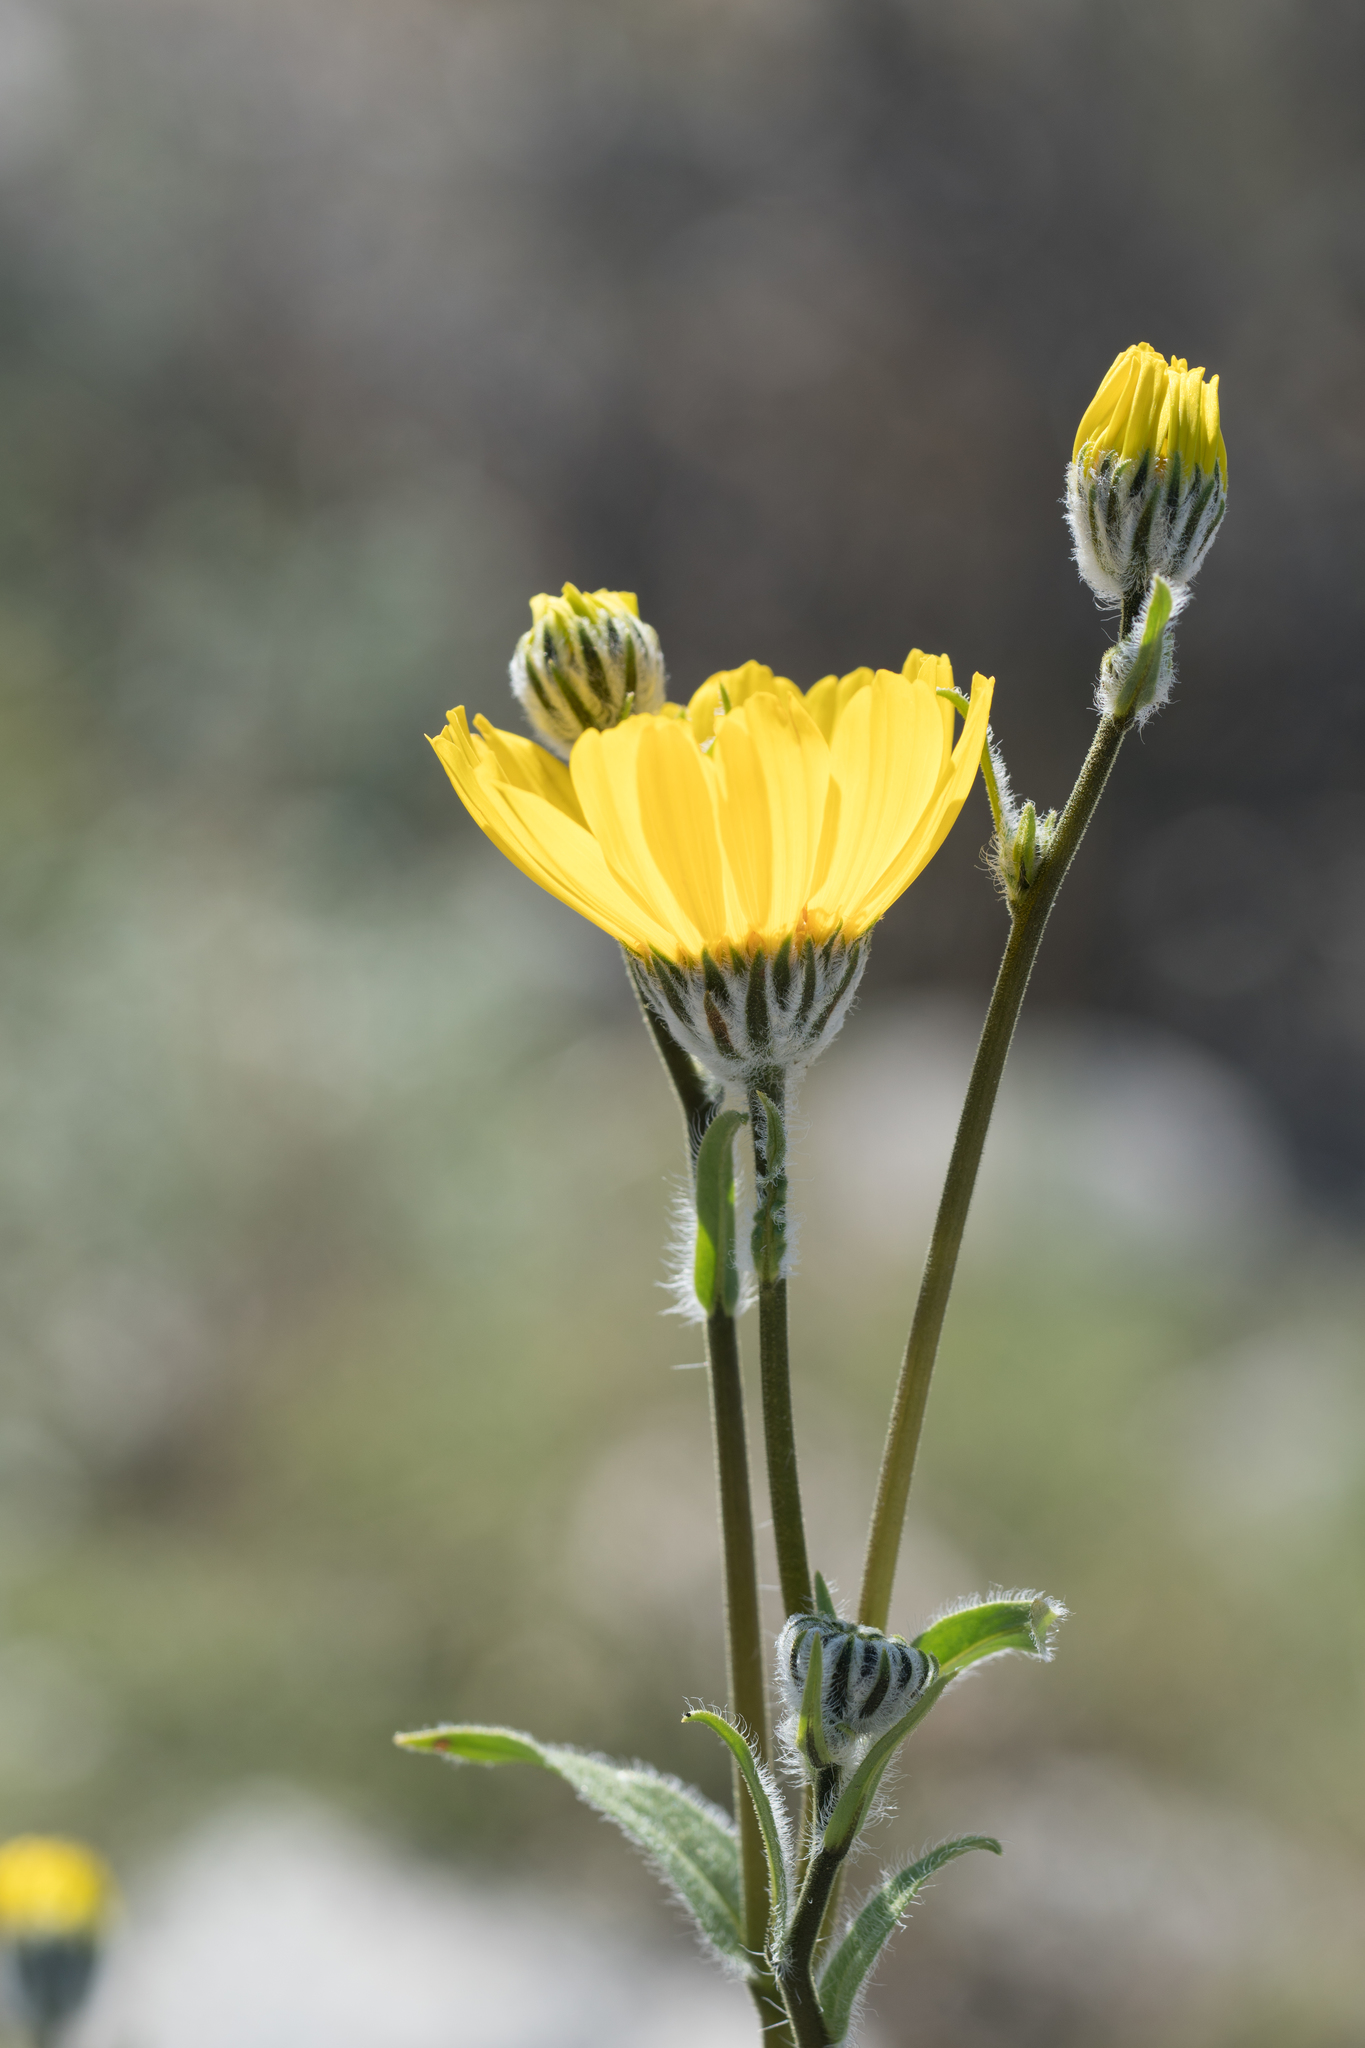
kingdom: Plantae
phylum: Tracheophyta
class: Magnoliopsida
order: Asterales
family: Asteraceae
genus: Geraea
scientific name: Geraea canescens
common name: Desert-gold
